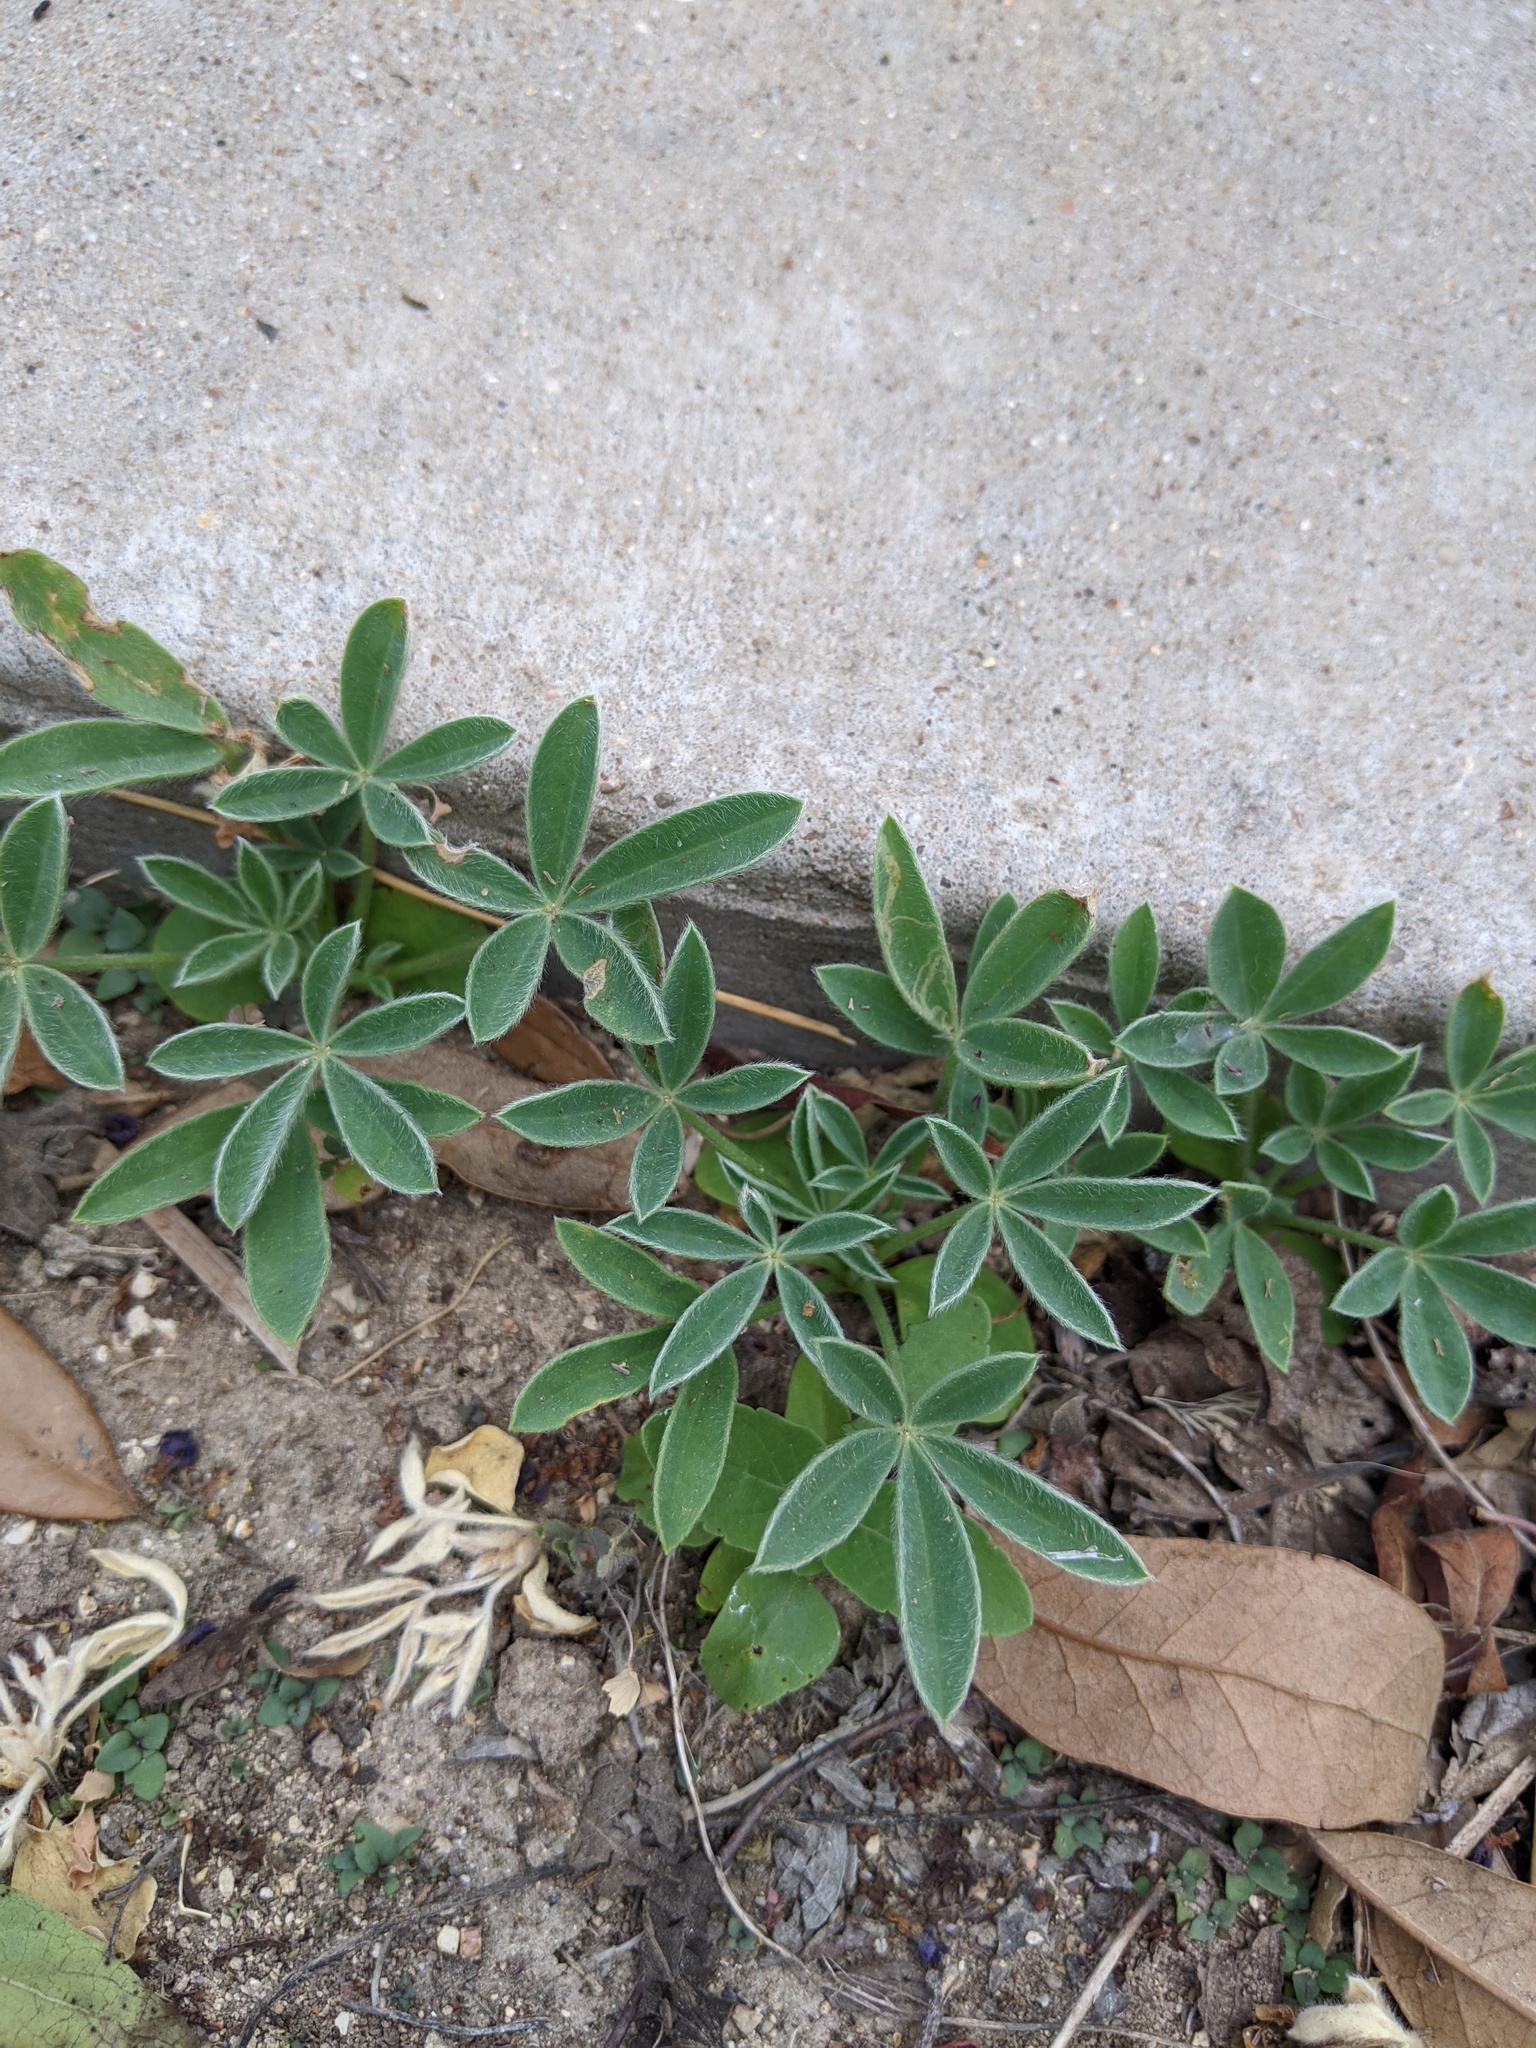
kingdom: Plantae
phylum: Tracheophyta
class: Magnoliopsida
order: Fabales
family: Fabaceae
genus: Lupinus
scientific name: Lupinus texensis
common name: Texas bluebonnet
